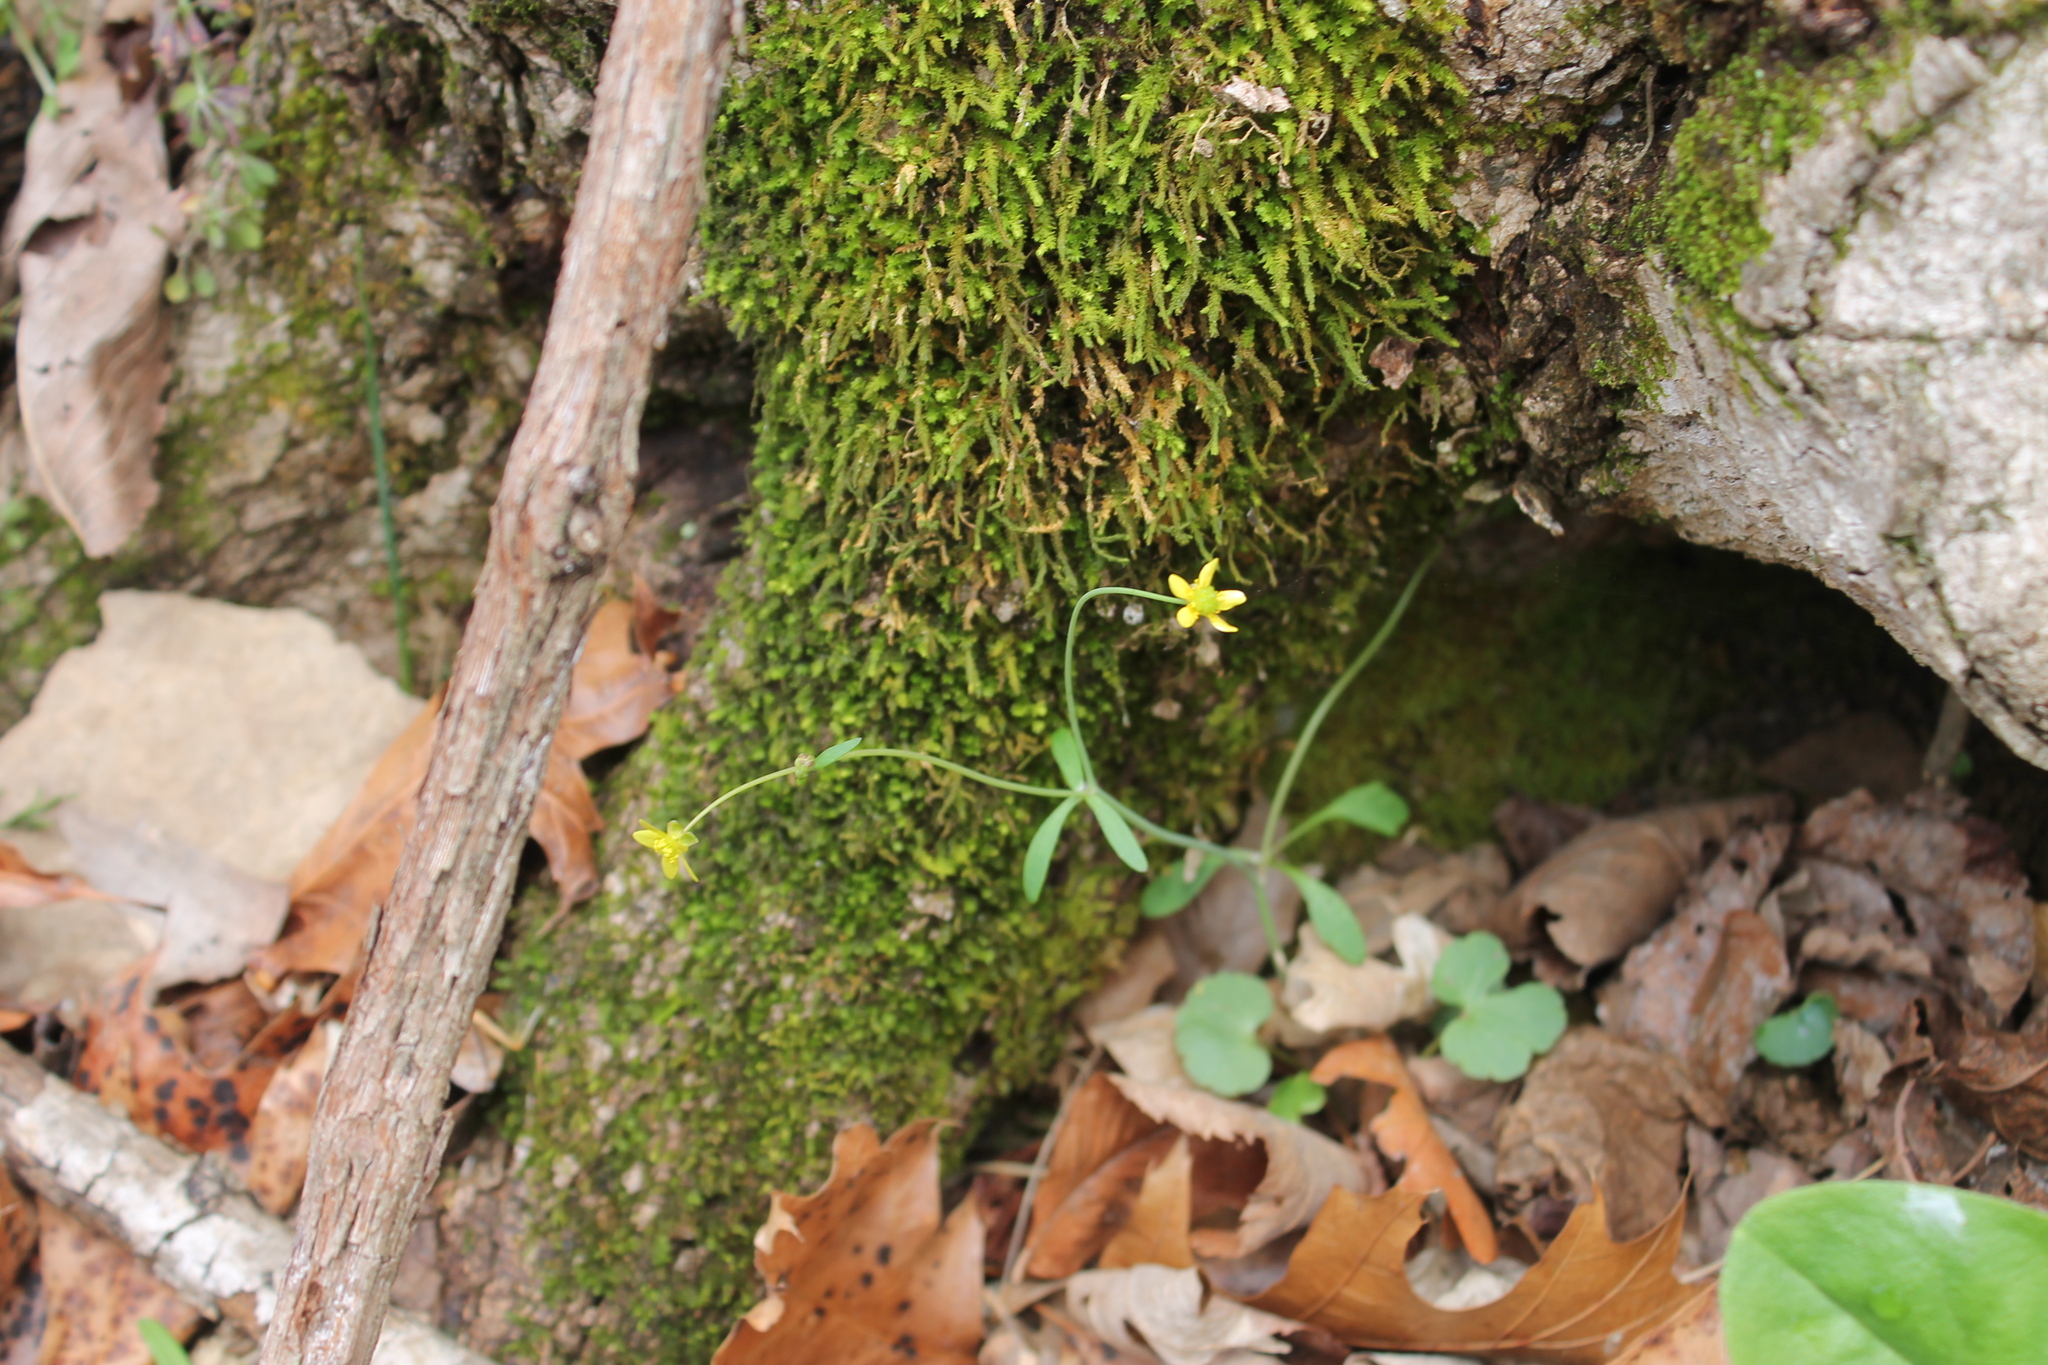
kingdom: Plantae
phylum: Tracheophyta
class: Magnoliopsida
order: Ranunculales
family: Ranunculaceae
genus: Ranunculus
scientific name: Ranunculus harveyi
